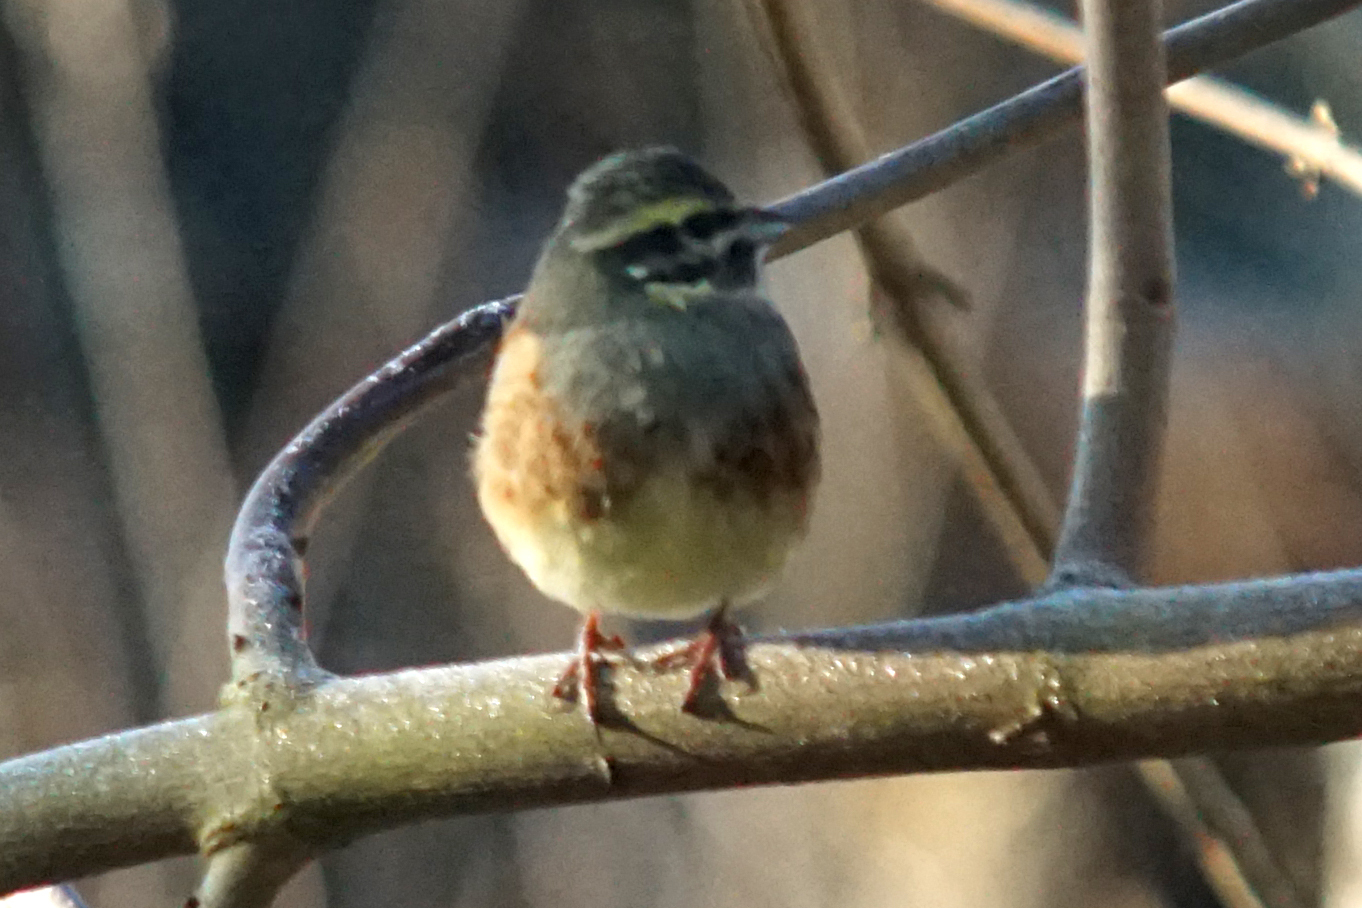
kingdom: Animalia
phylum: Chordata
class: Aves
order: Passeriformes
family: Emberizidae
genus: Emberiza
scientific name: Emberiza cirlus
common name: Cirl bunting
